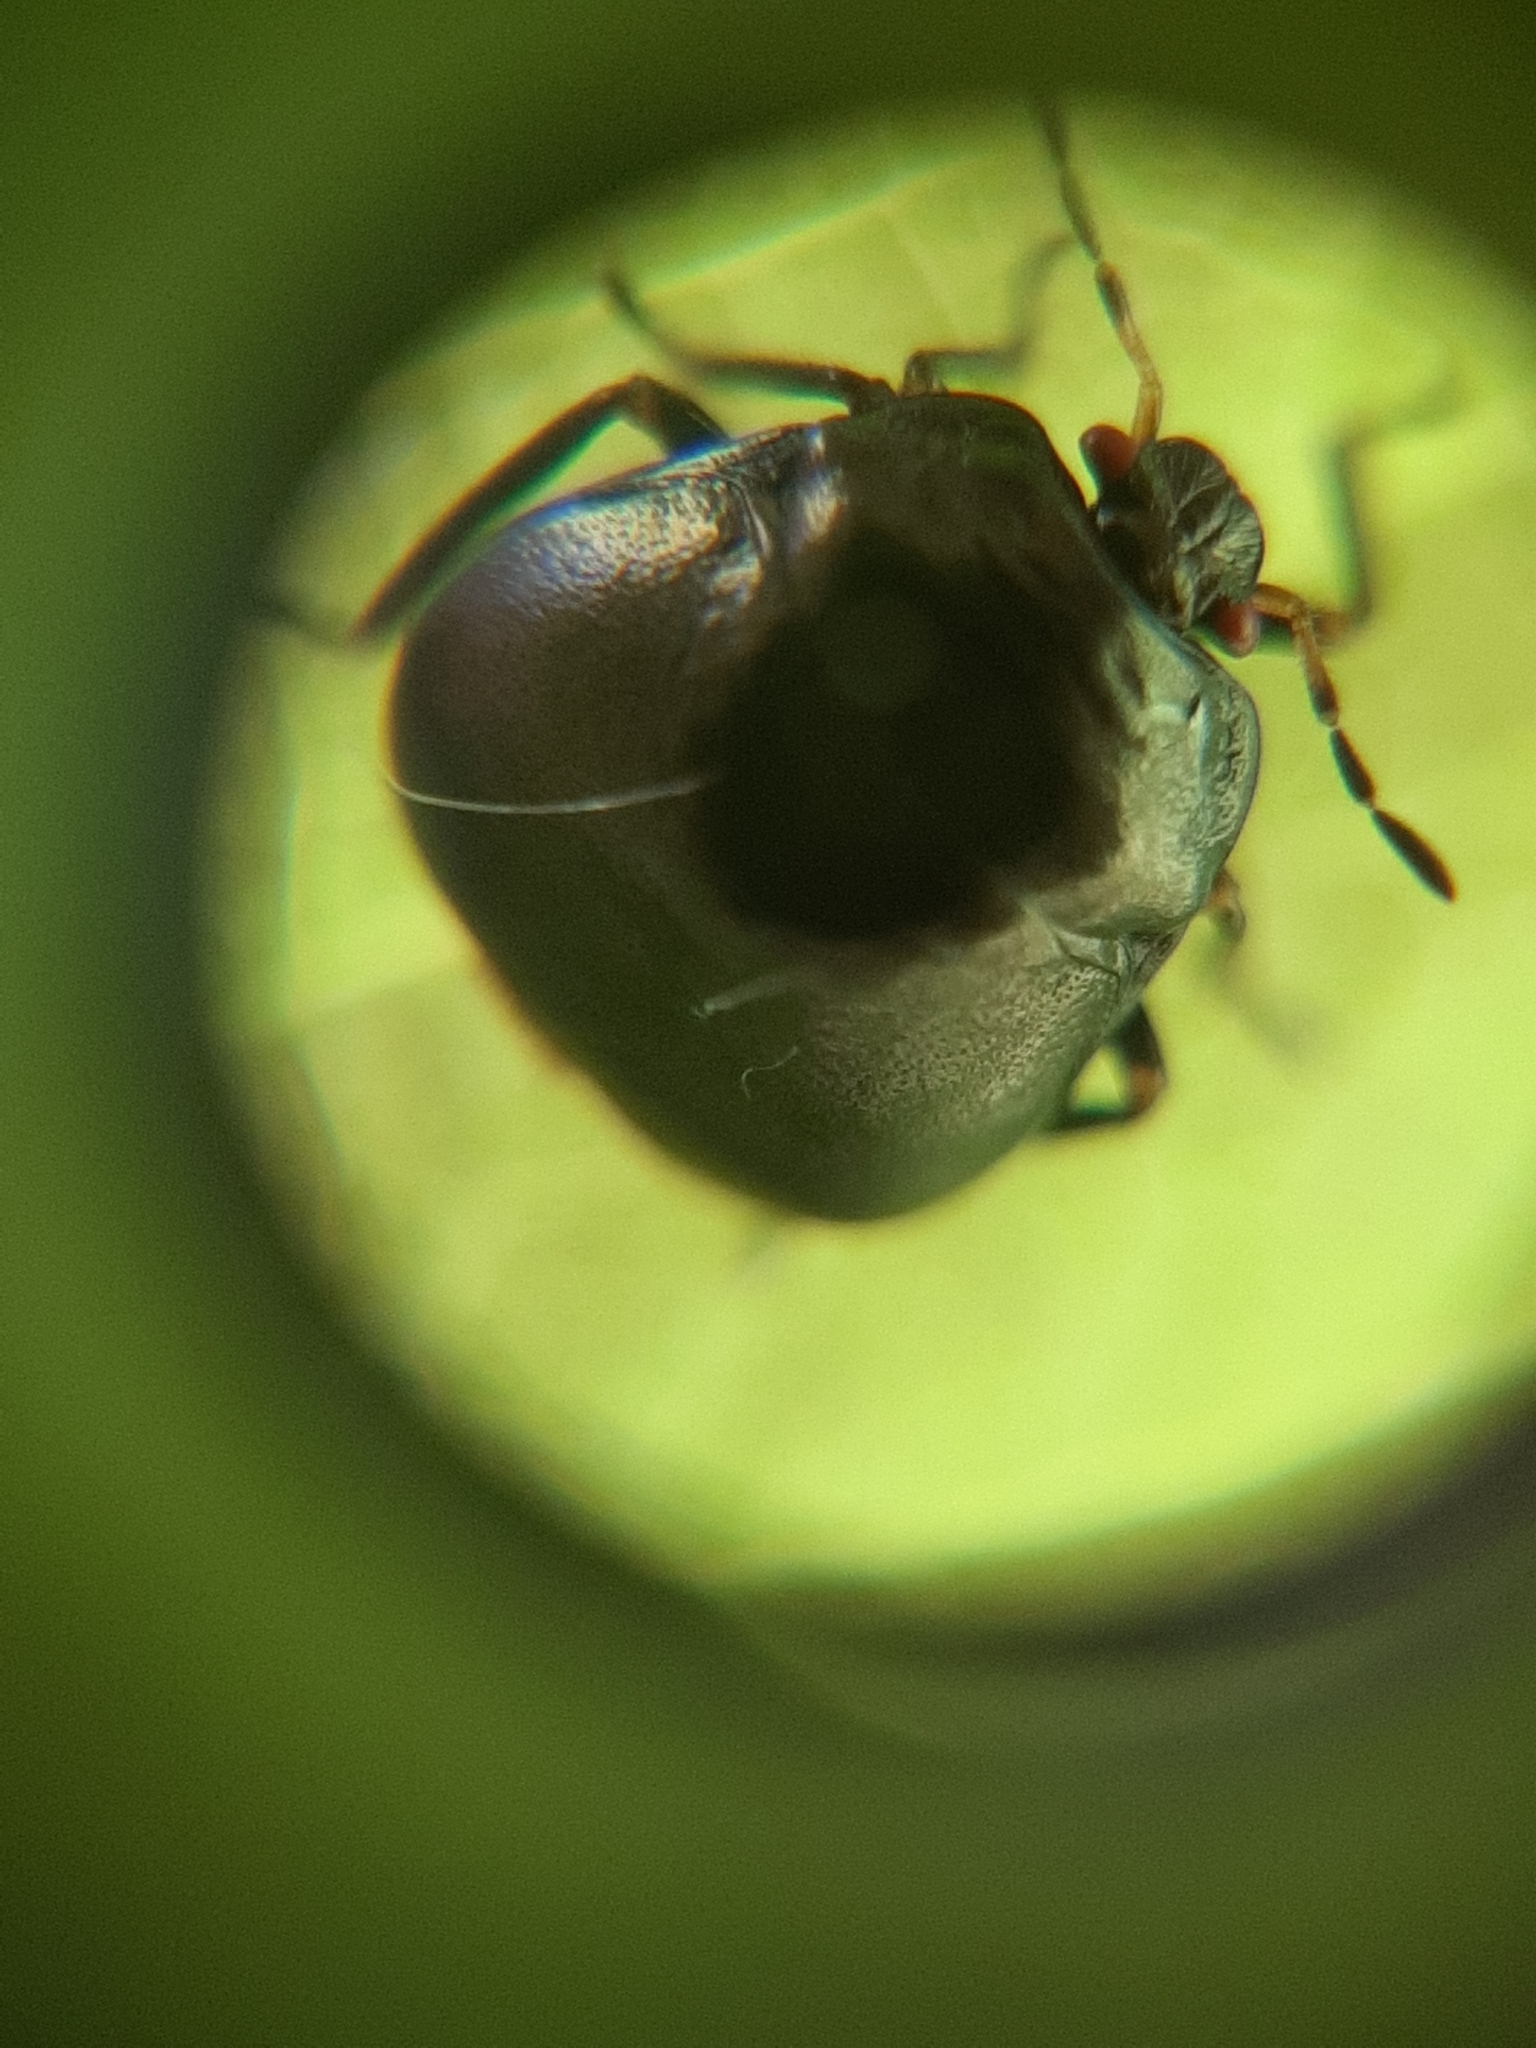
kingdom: Animalia
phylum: Arthropoda
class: Insecta
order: Hemiptera
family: Plataspidae
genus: Coptosoma
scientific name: Coptosoma scutellatum
